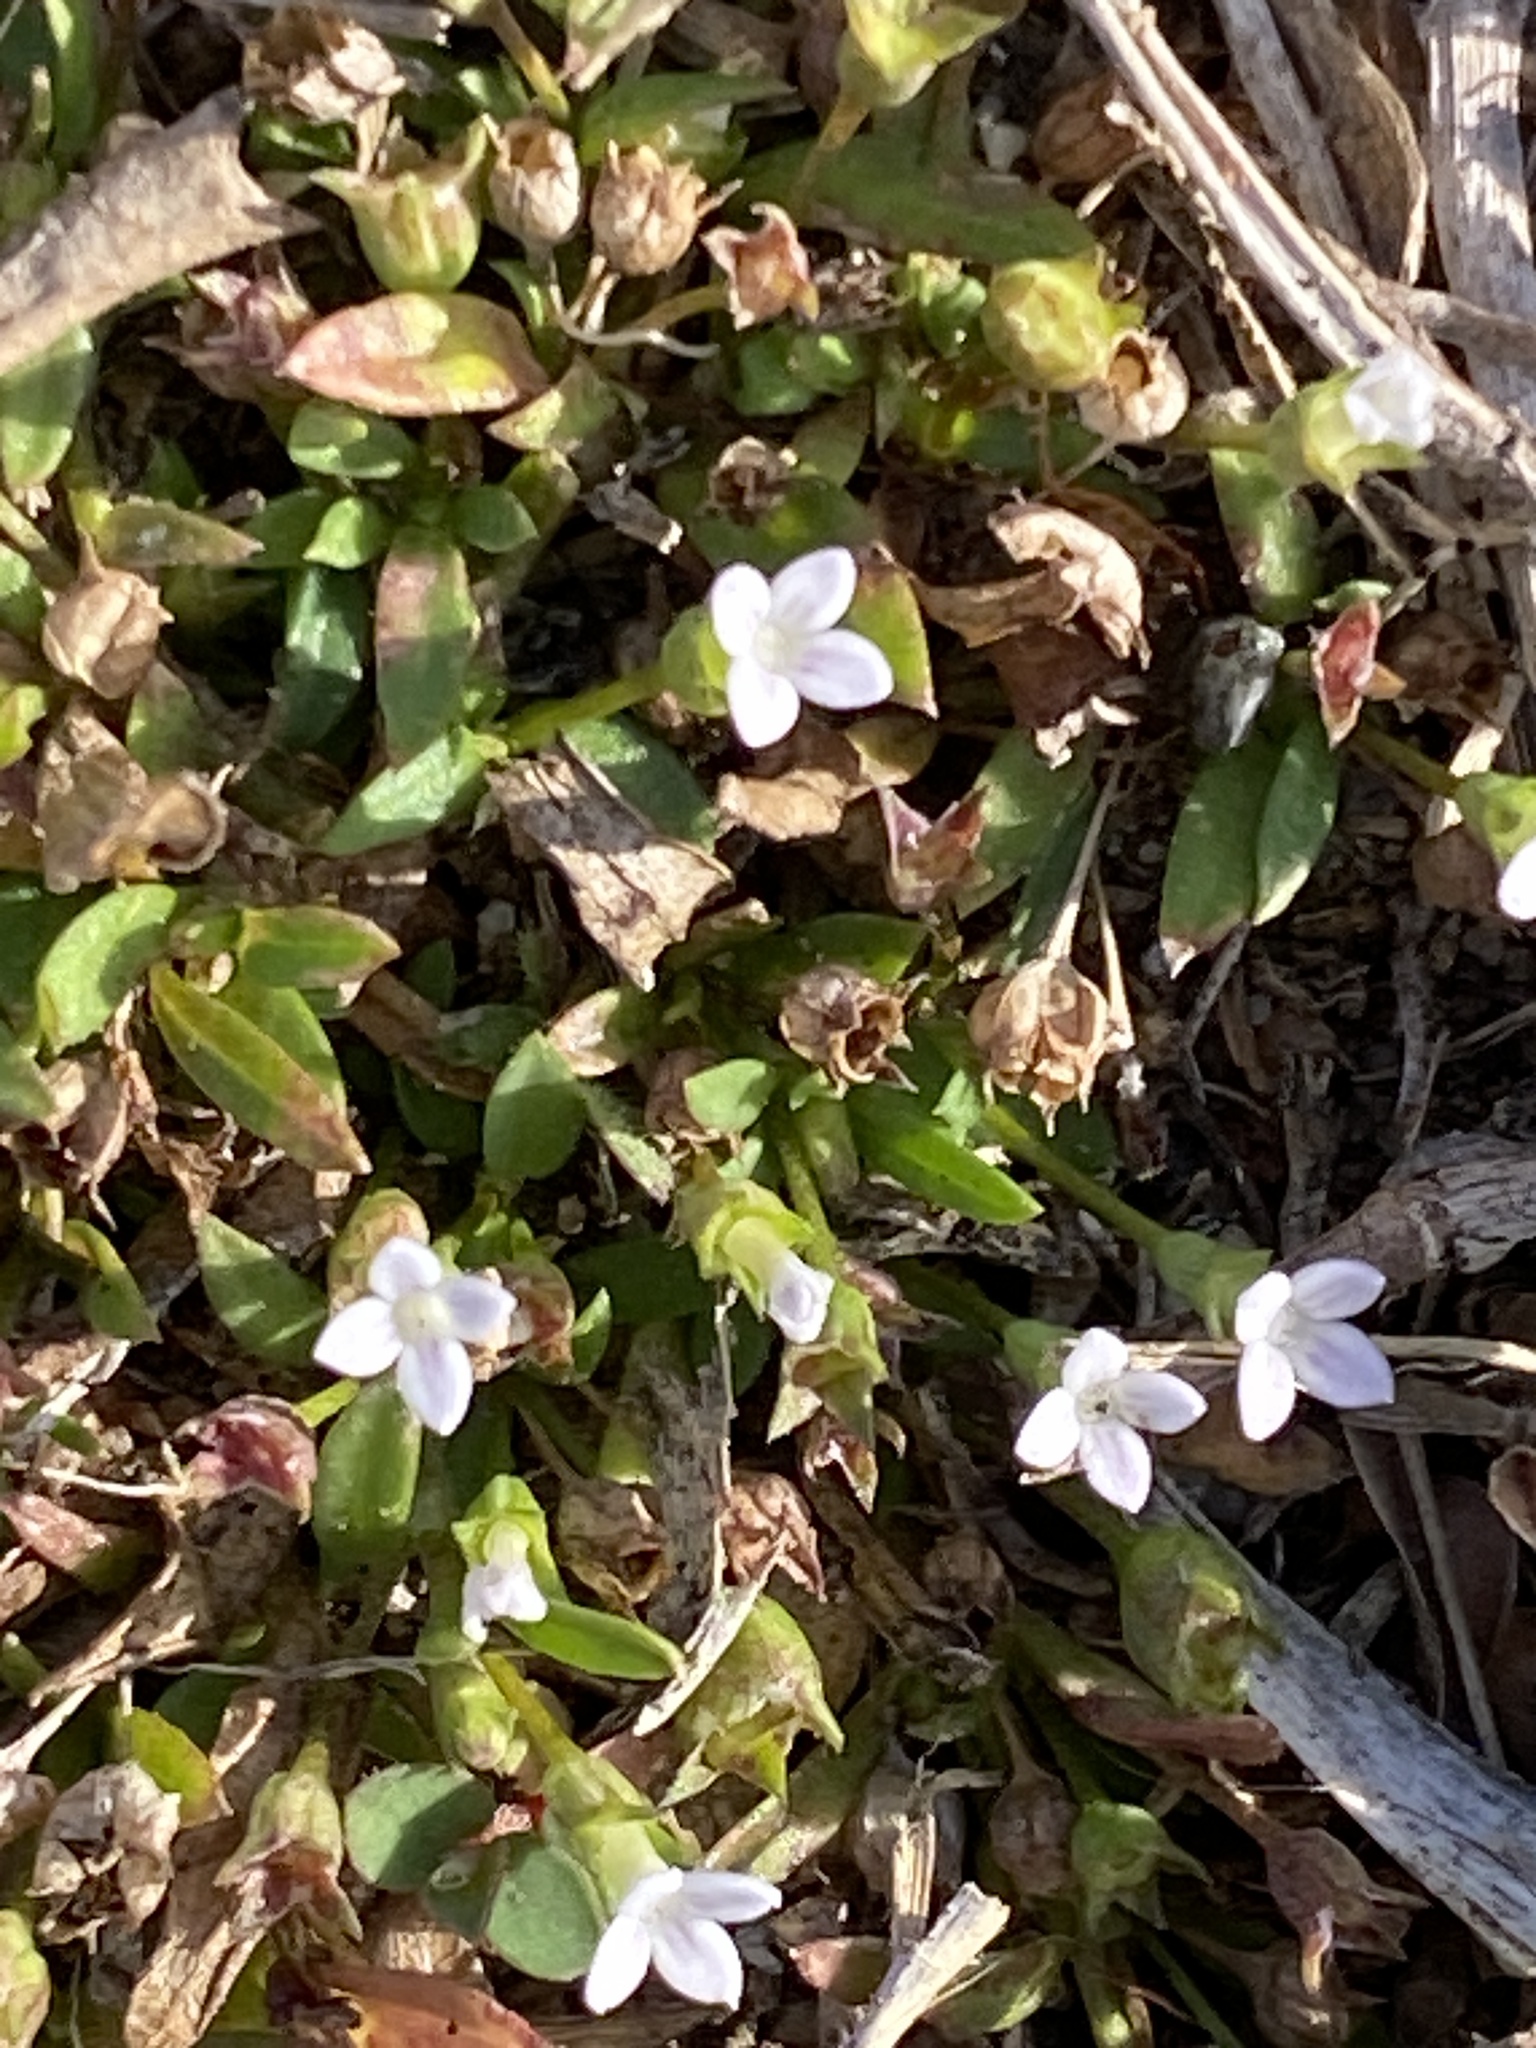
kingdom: Plantae
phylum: Tracheophyta
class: Magnoliopsida
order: Gentianales
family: Rubiaceae
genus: Oldenlandia
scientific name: Oldenlandia corymbosa
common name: Flat-top mille graines
